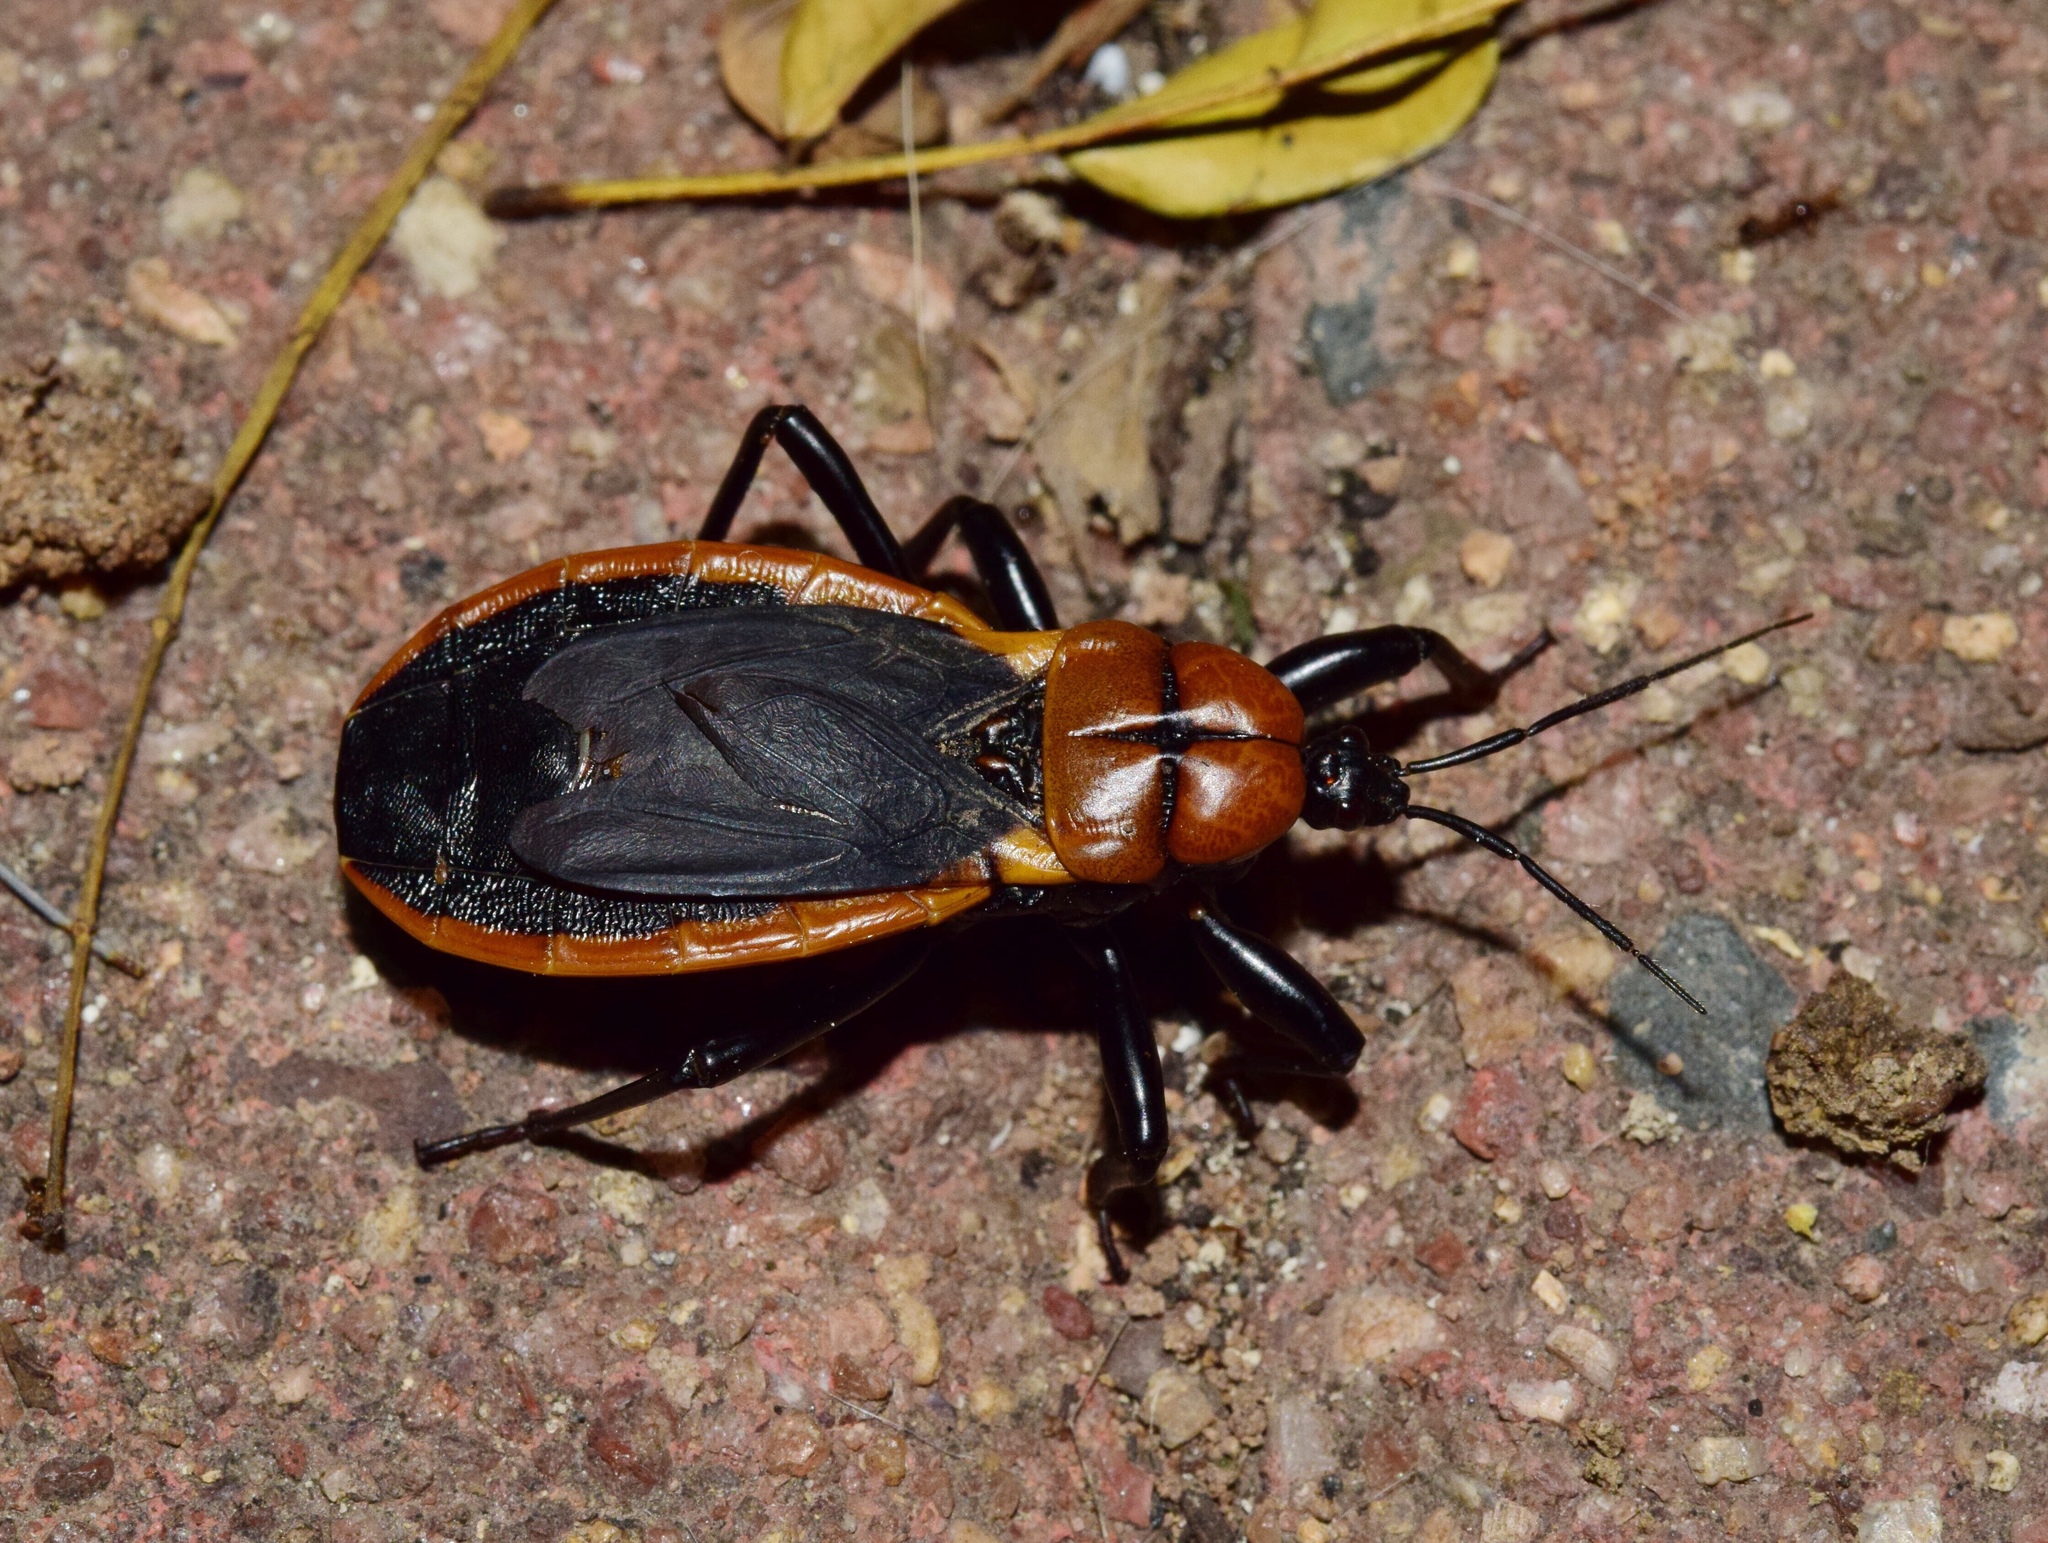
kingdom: Animalia
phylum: Arthropoda
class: Insecta
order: Hemiptera
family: Reduviidae
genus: Ectrichodia
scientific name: Ectrichodia crux
